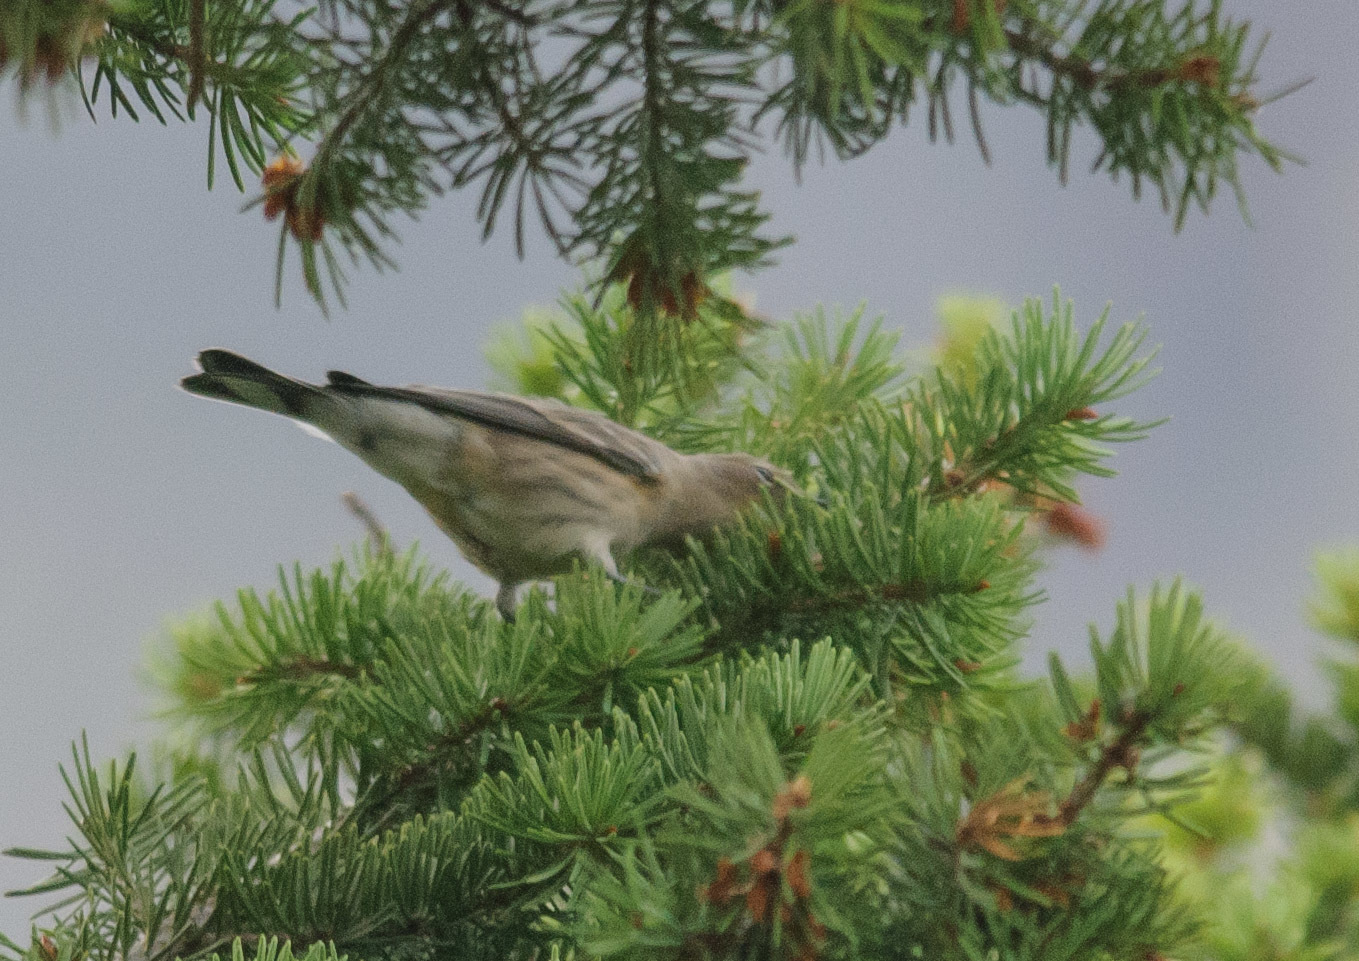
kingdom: Animalia
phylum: Chordata
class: Aves
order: Passeriformes
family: Parulidae
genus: Setophaga
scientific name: Setophaga coronata
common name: Myrtle warbler
